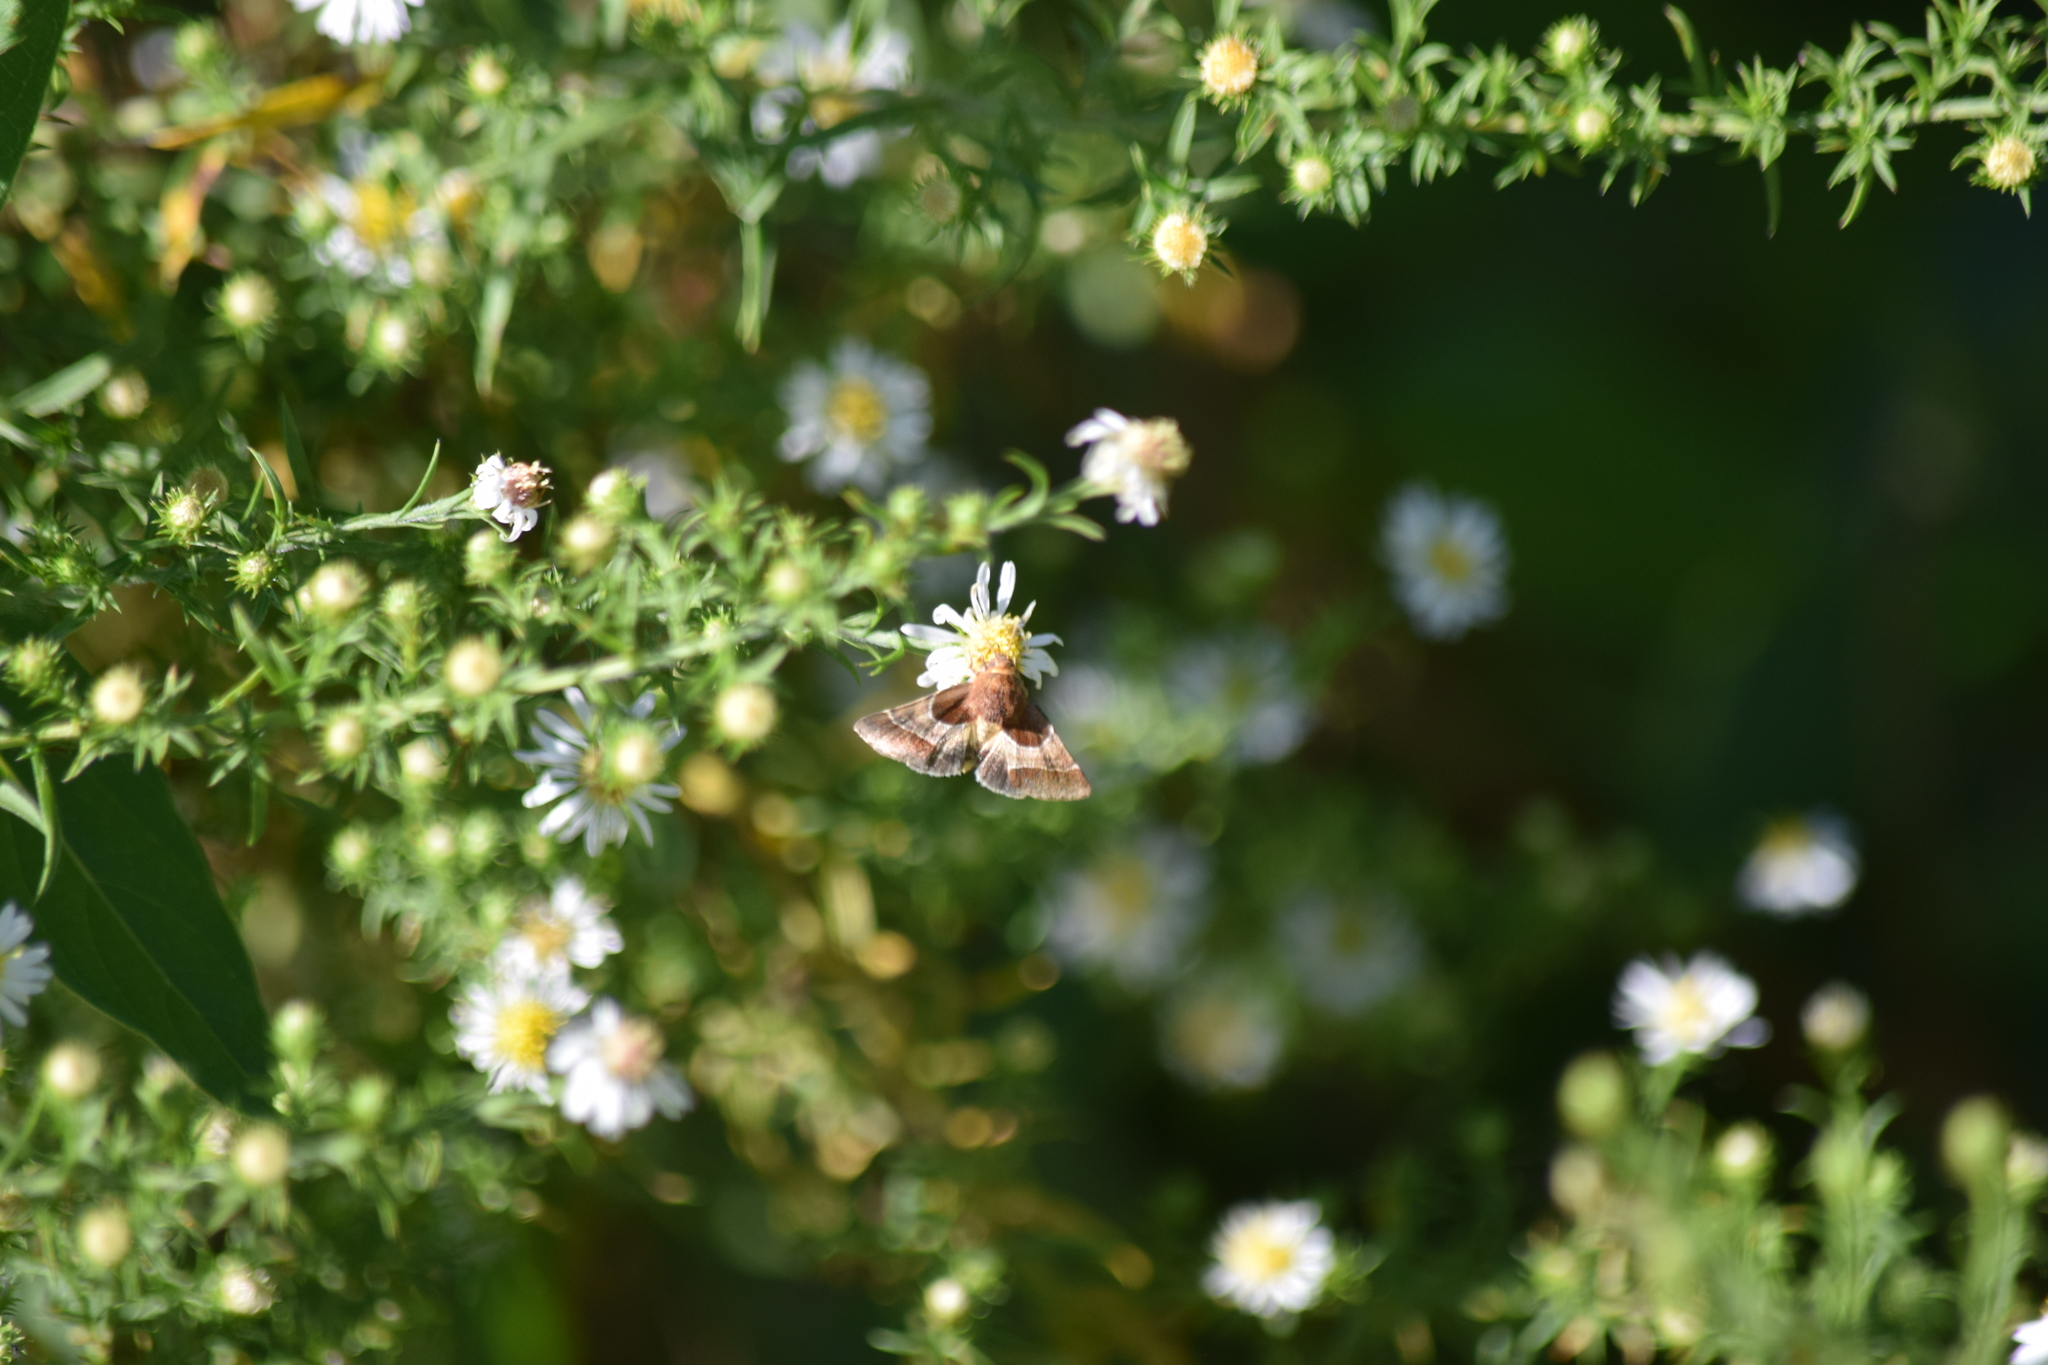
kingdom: Animalia
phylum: Arthropoda
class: Insecta
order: Lepidoptera
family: Noctuidae
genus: Schinia
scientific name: Schinia arcigera
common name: Arcigera flower moth
